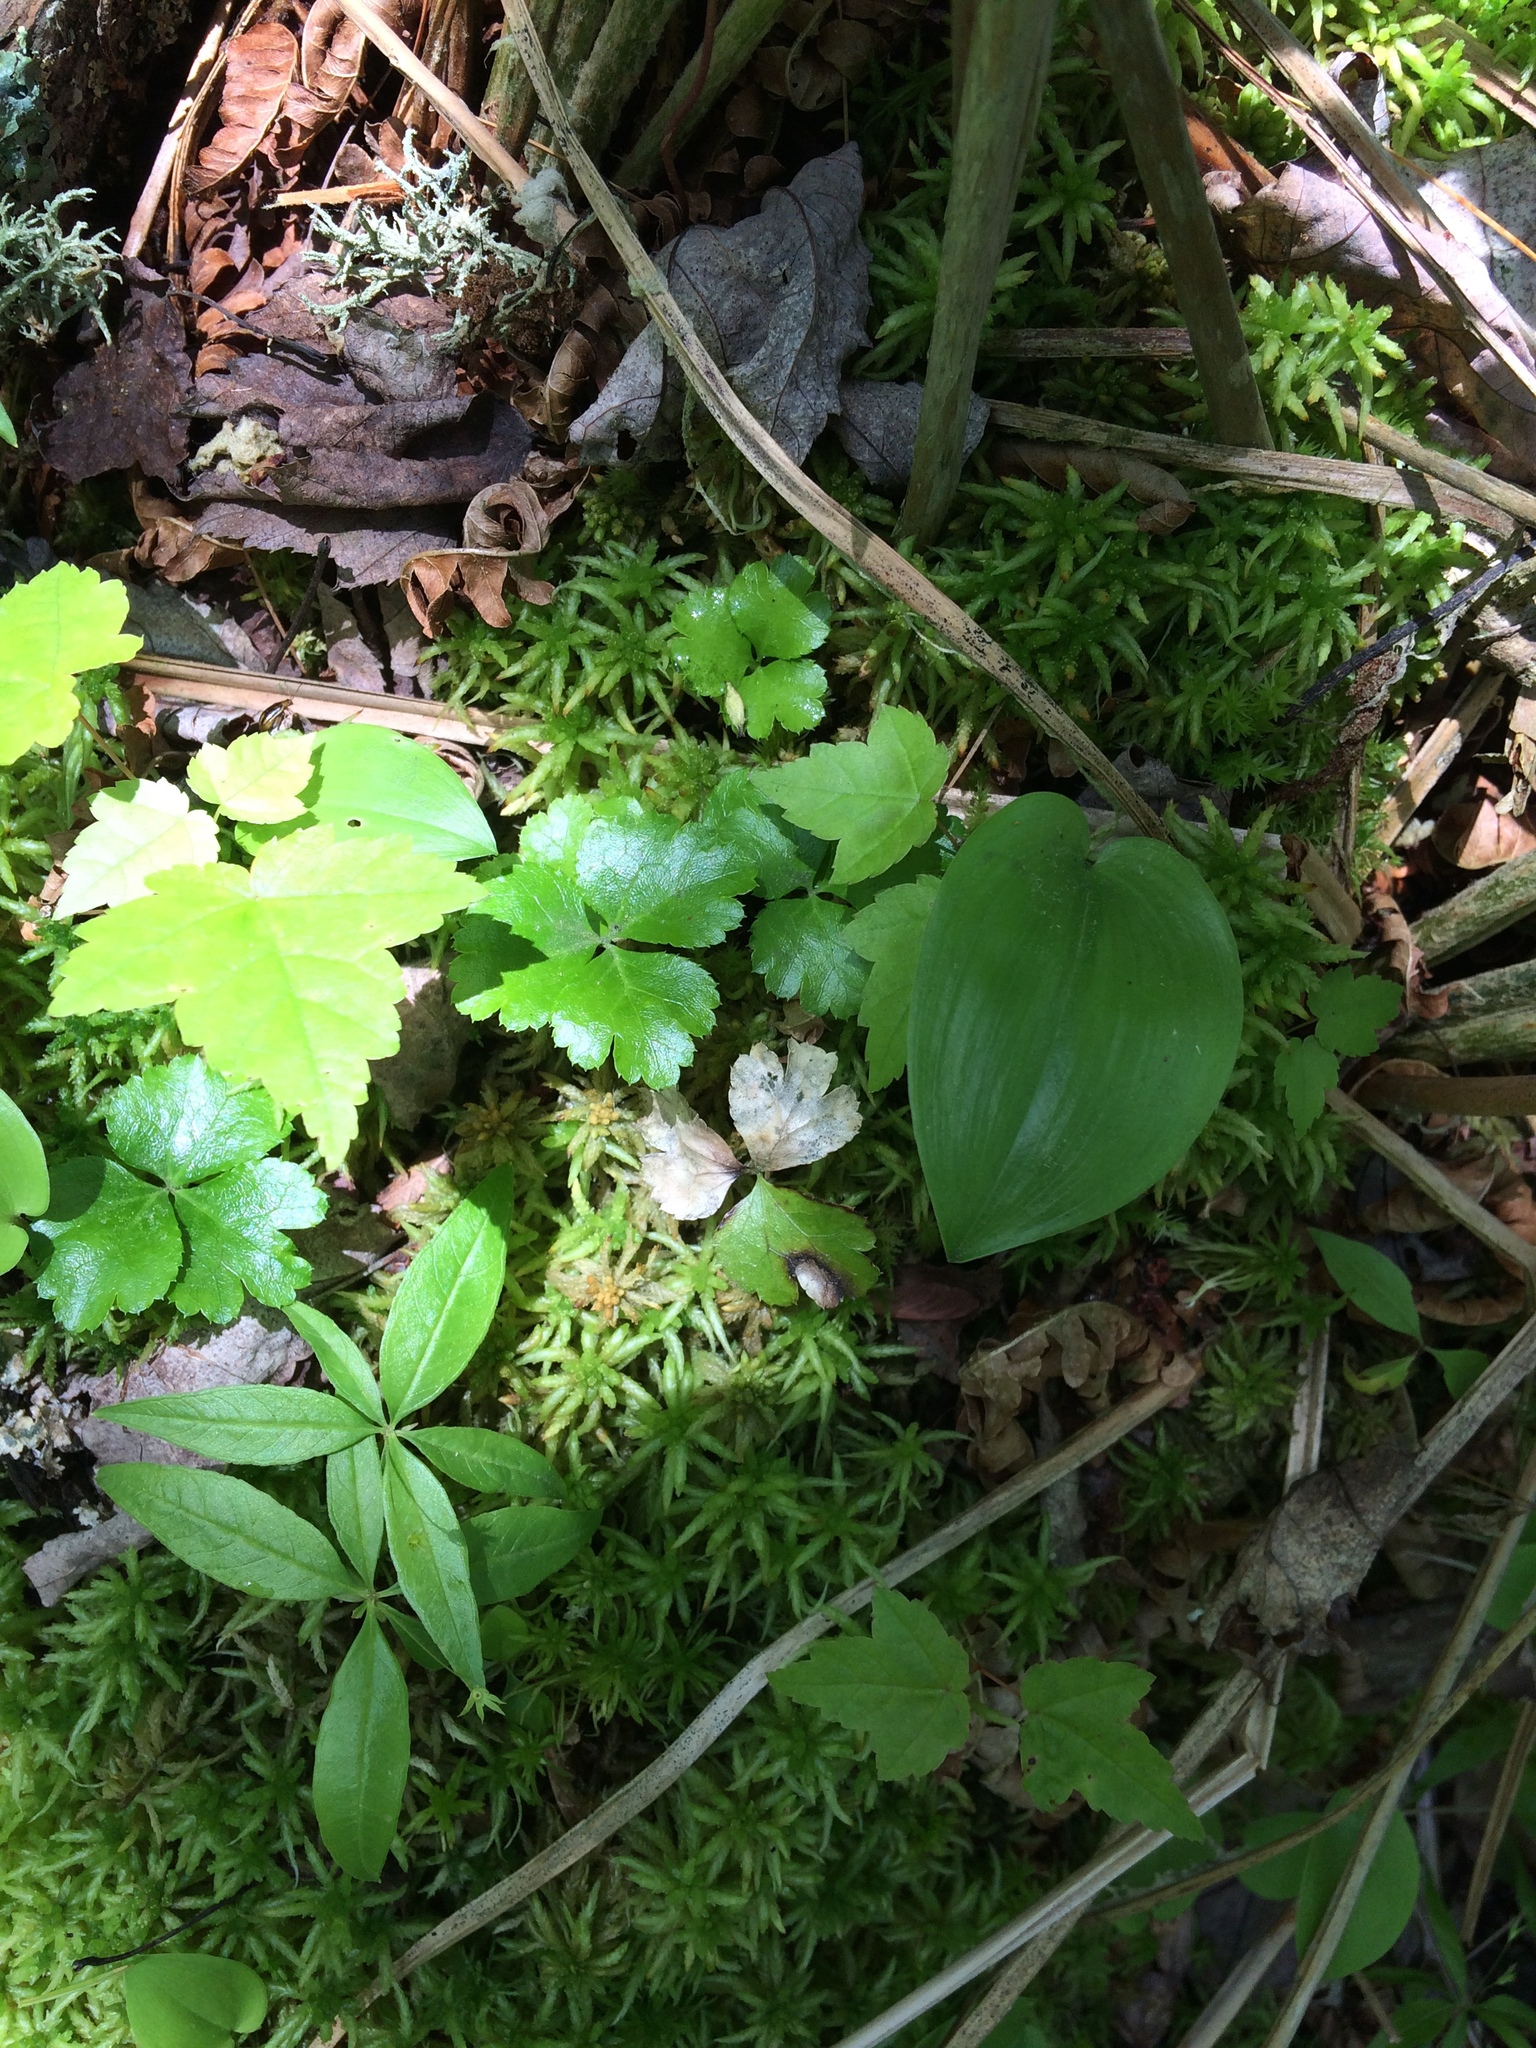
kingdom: Plantae
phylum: Tracheophyta
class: Magnoliopsida
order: Ranunculales
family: Ranunculaceae
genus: Coptis
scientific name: Coptis trifolia
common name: Canker-root
